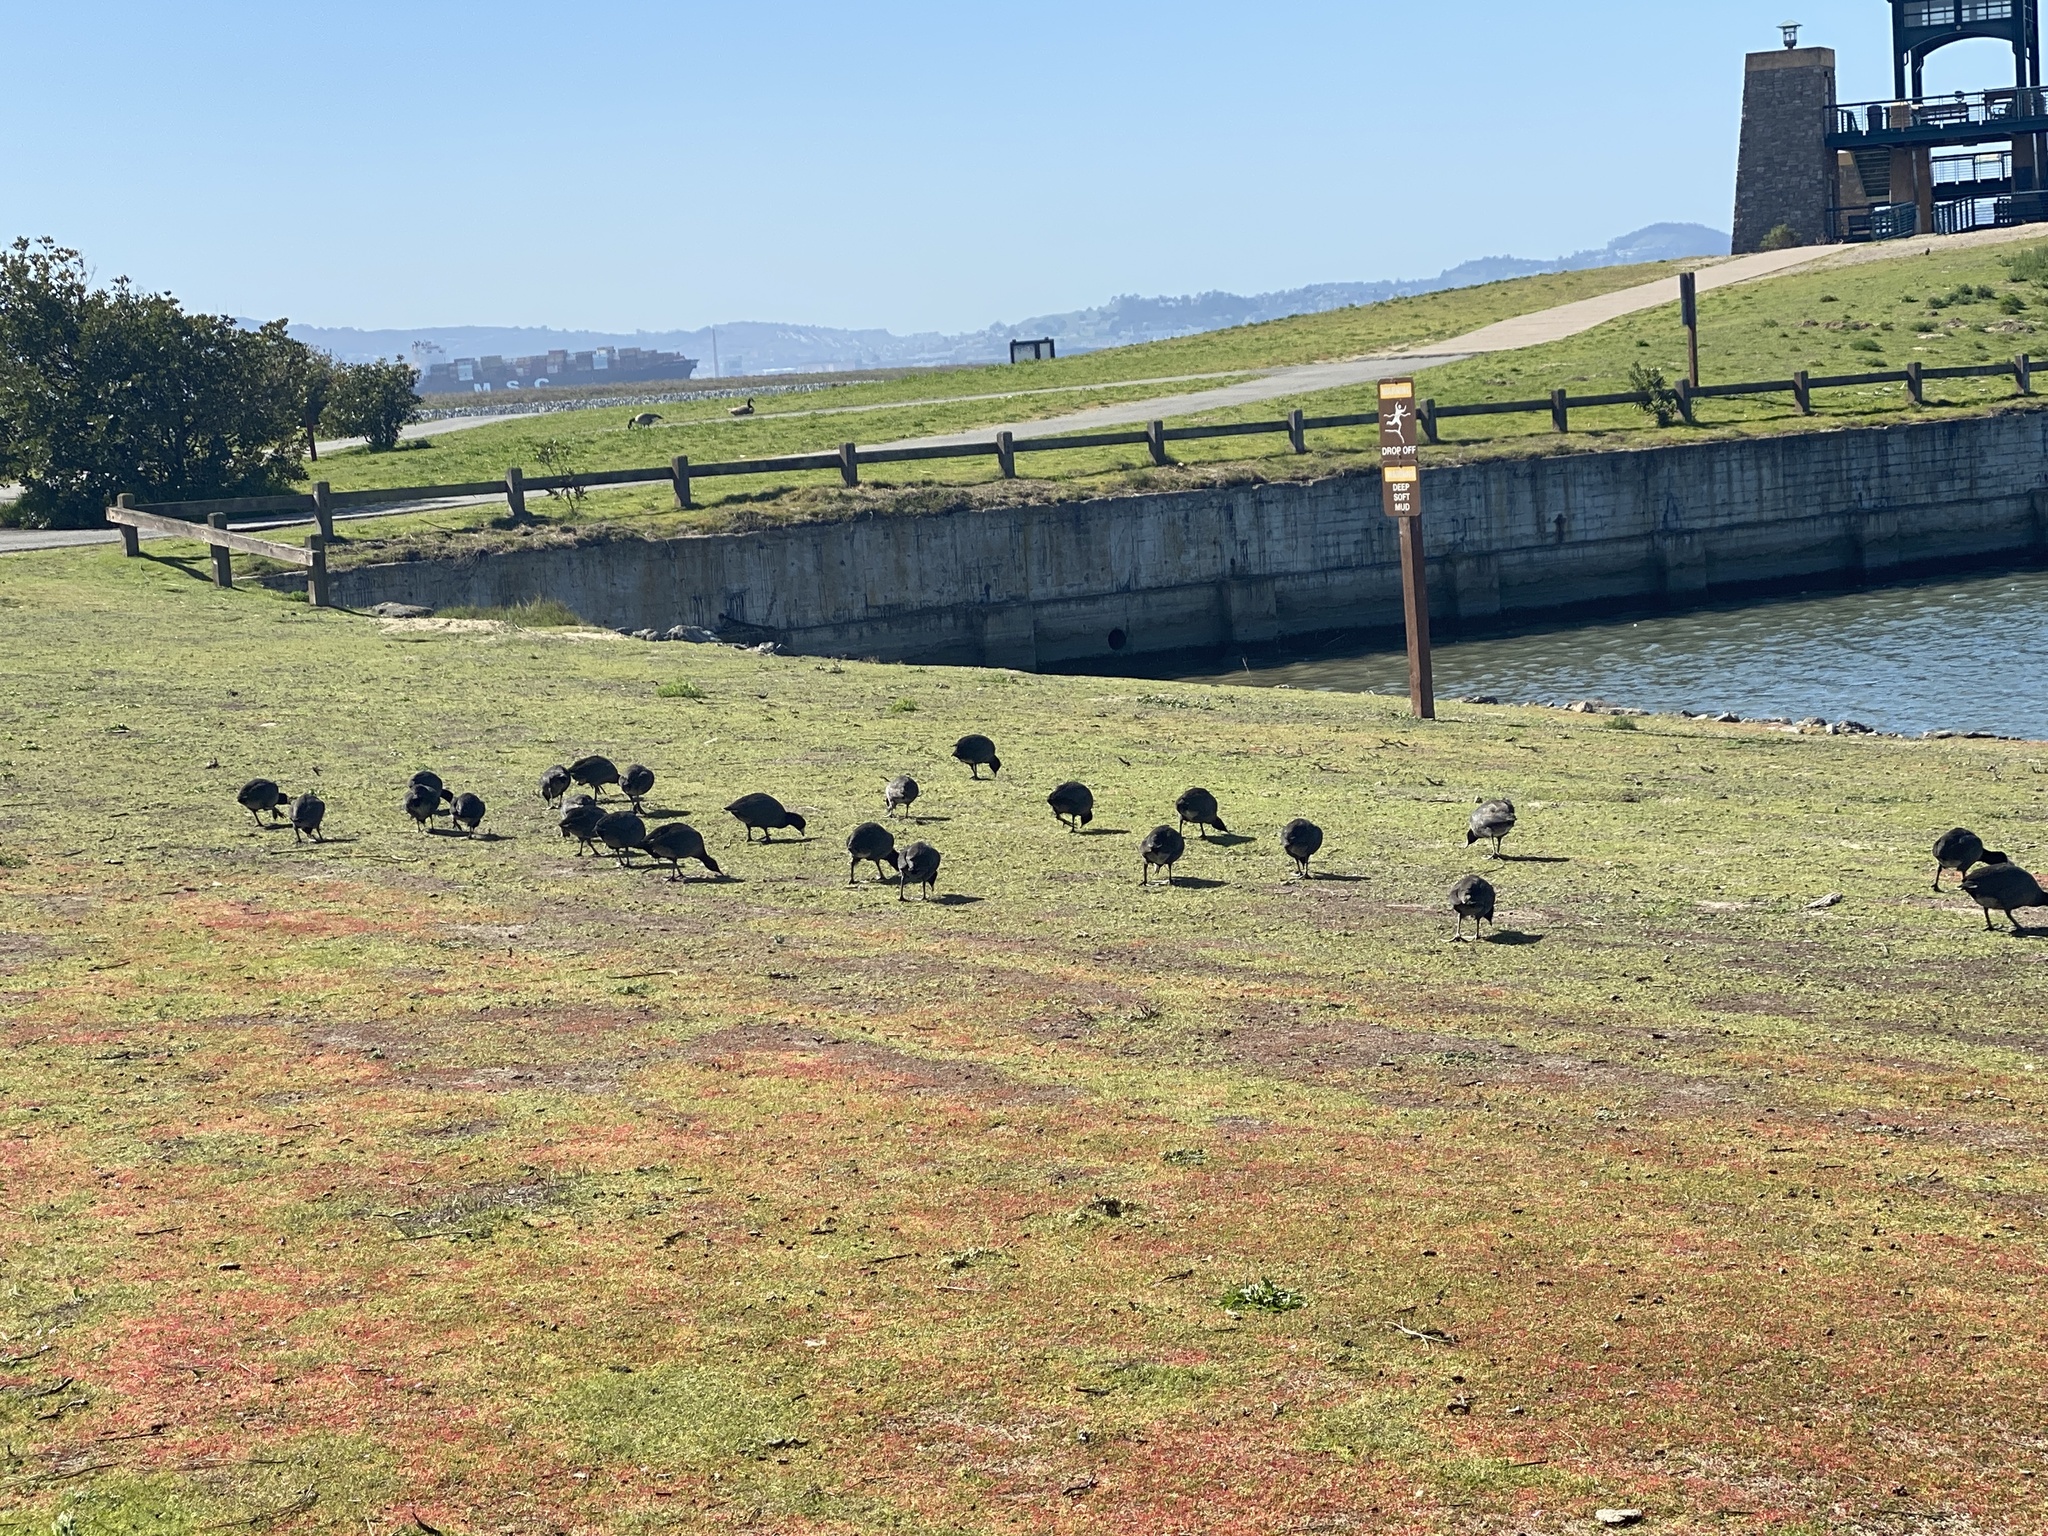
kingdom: Animalia
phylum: Chordata
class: Aves
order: Gruiformes
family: Rallidae
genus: Fulica
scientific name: Fulica americana
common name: American coot
